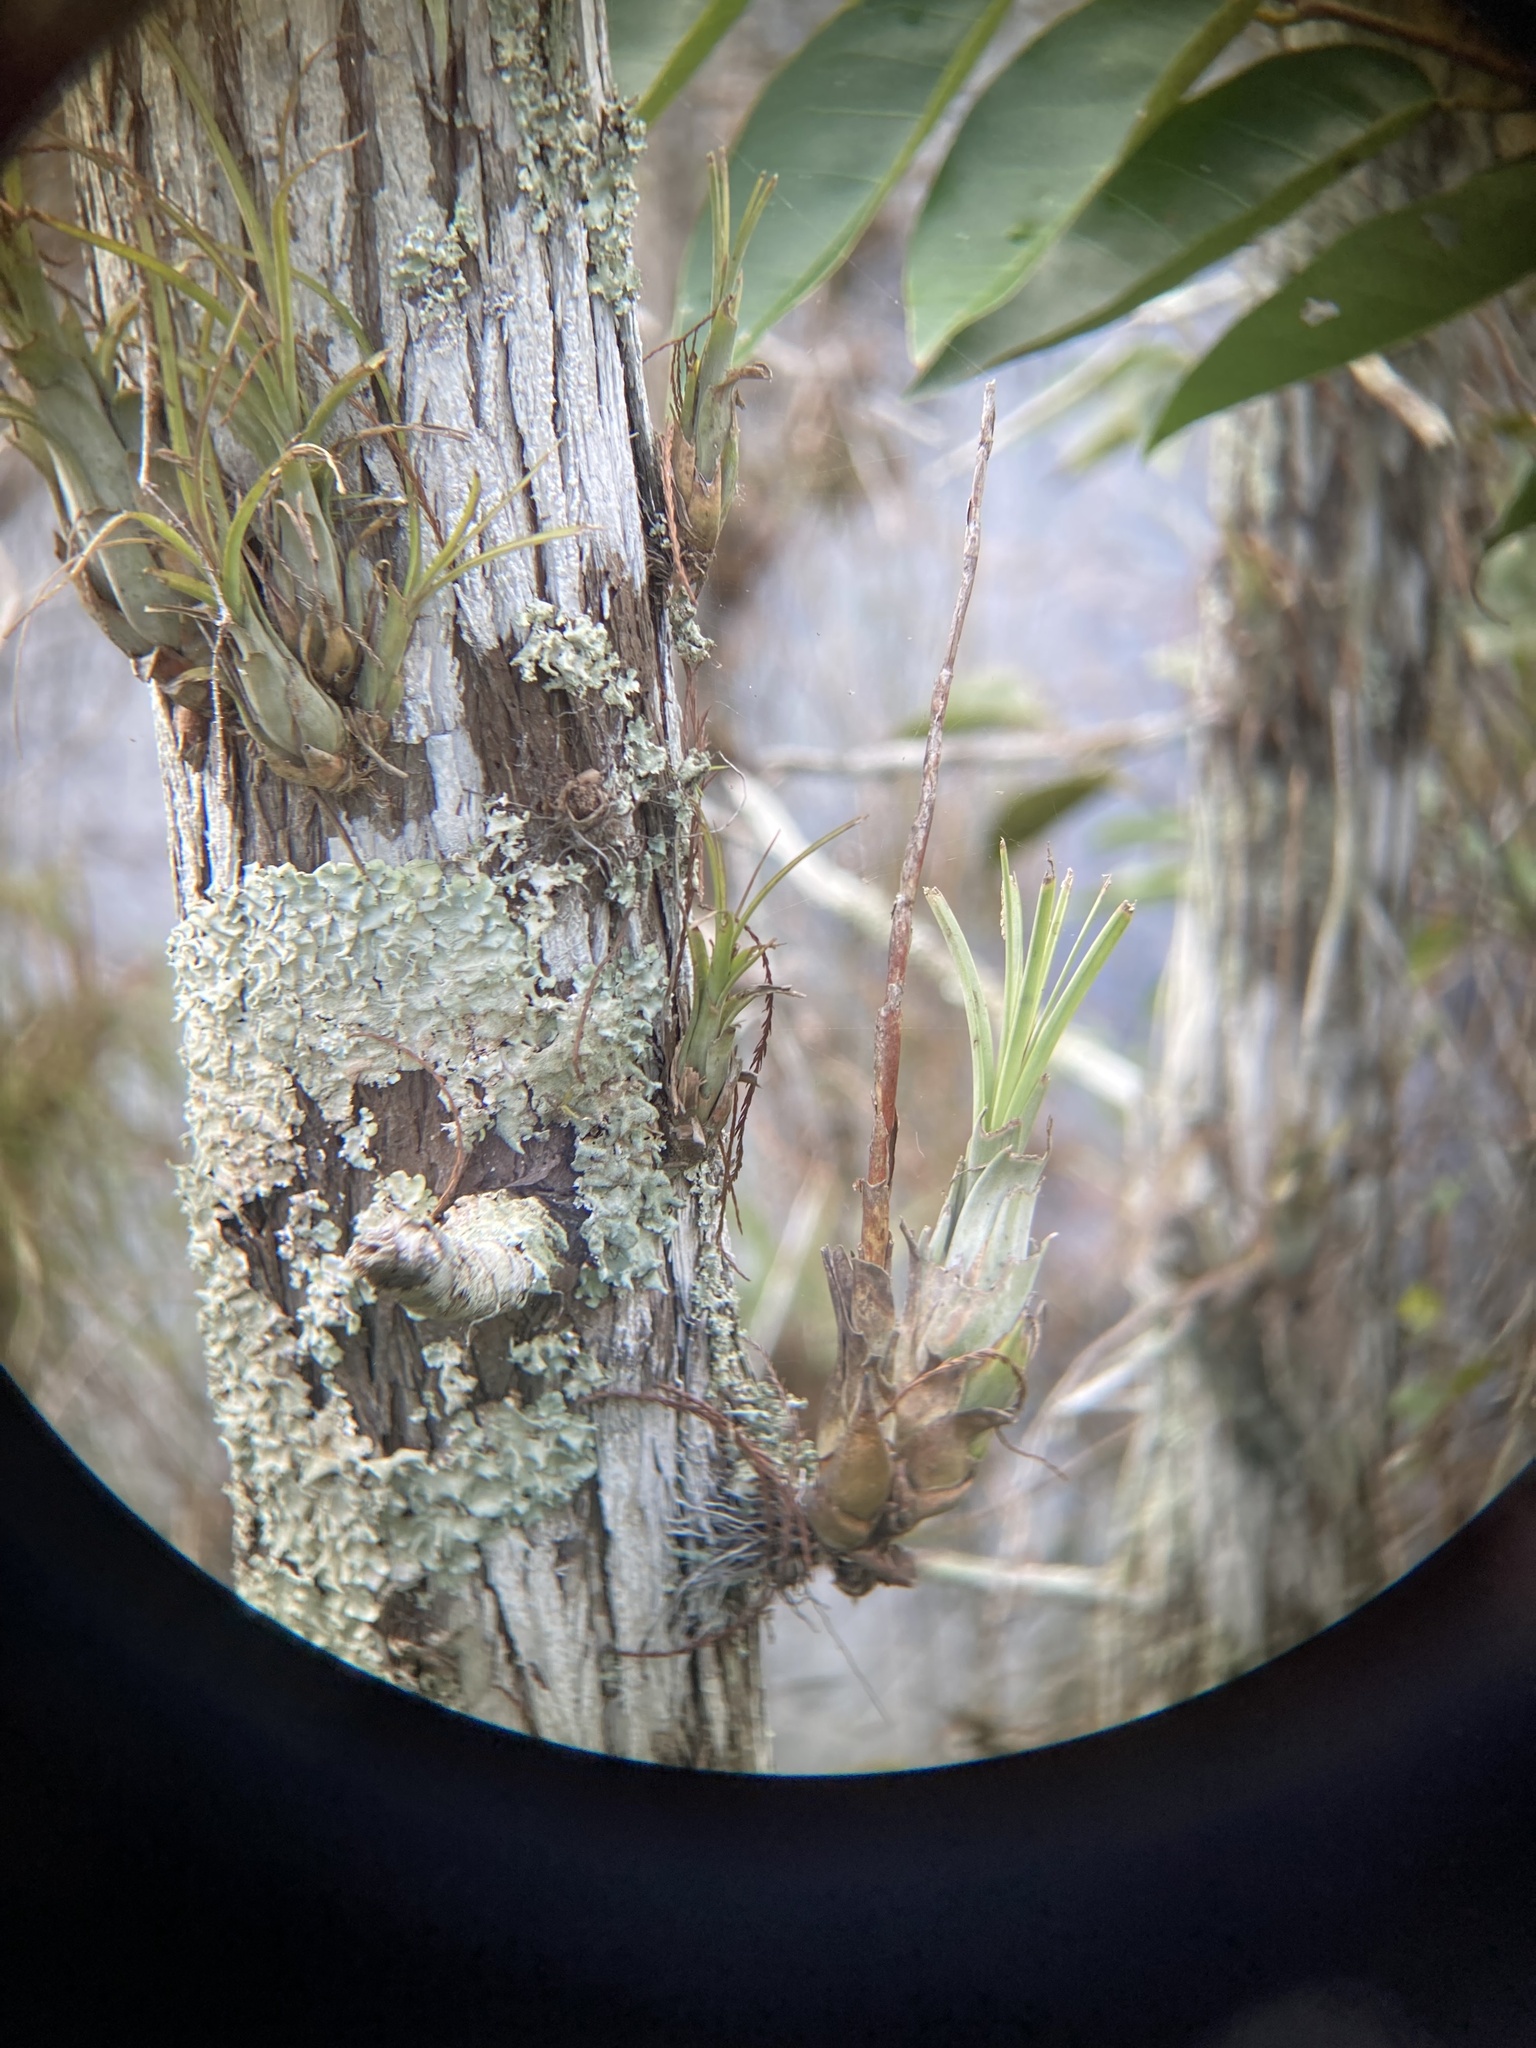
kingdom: Plantae
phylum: Tracheophyta
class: Liliopsida
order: Poales
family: Bromeliaceae
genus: Tillandsia
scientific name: Tillandsia balbisiana
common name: Northern needleleaf
